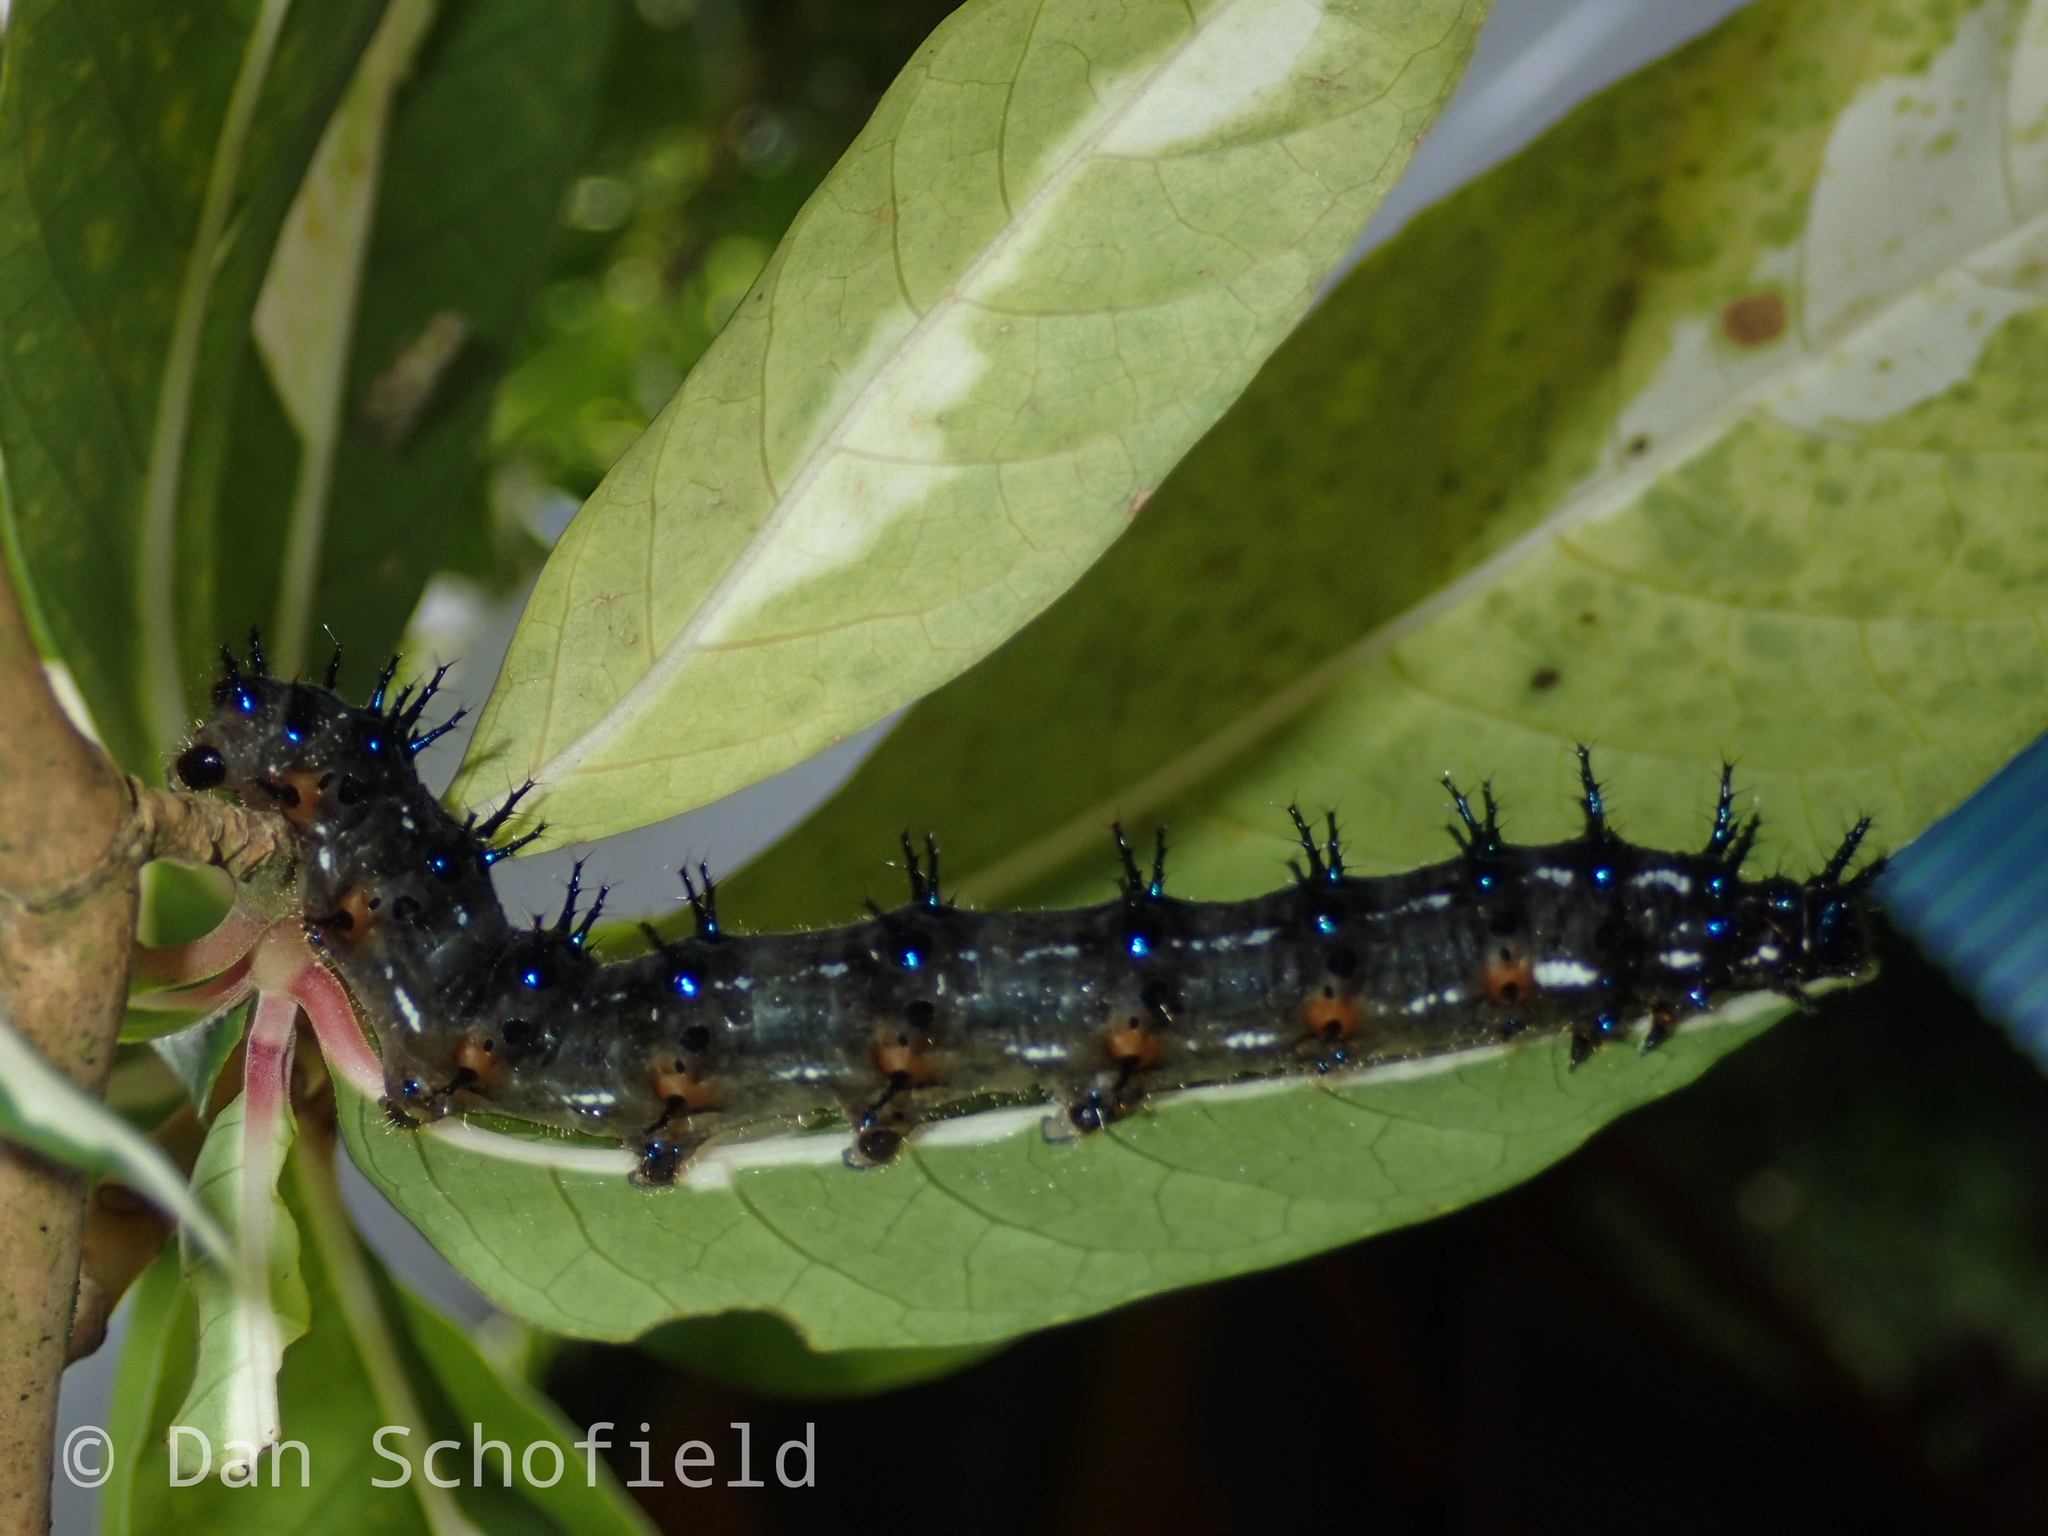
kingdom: Animalia
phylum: Arthropoda
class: Insecta
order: Lepidoptera
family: Nymphalidae
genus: Doleschallia
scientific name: Doleschallia bisaltide
